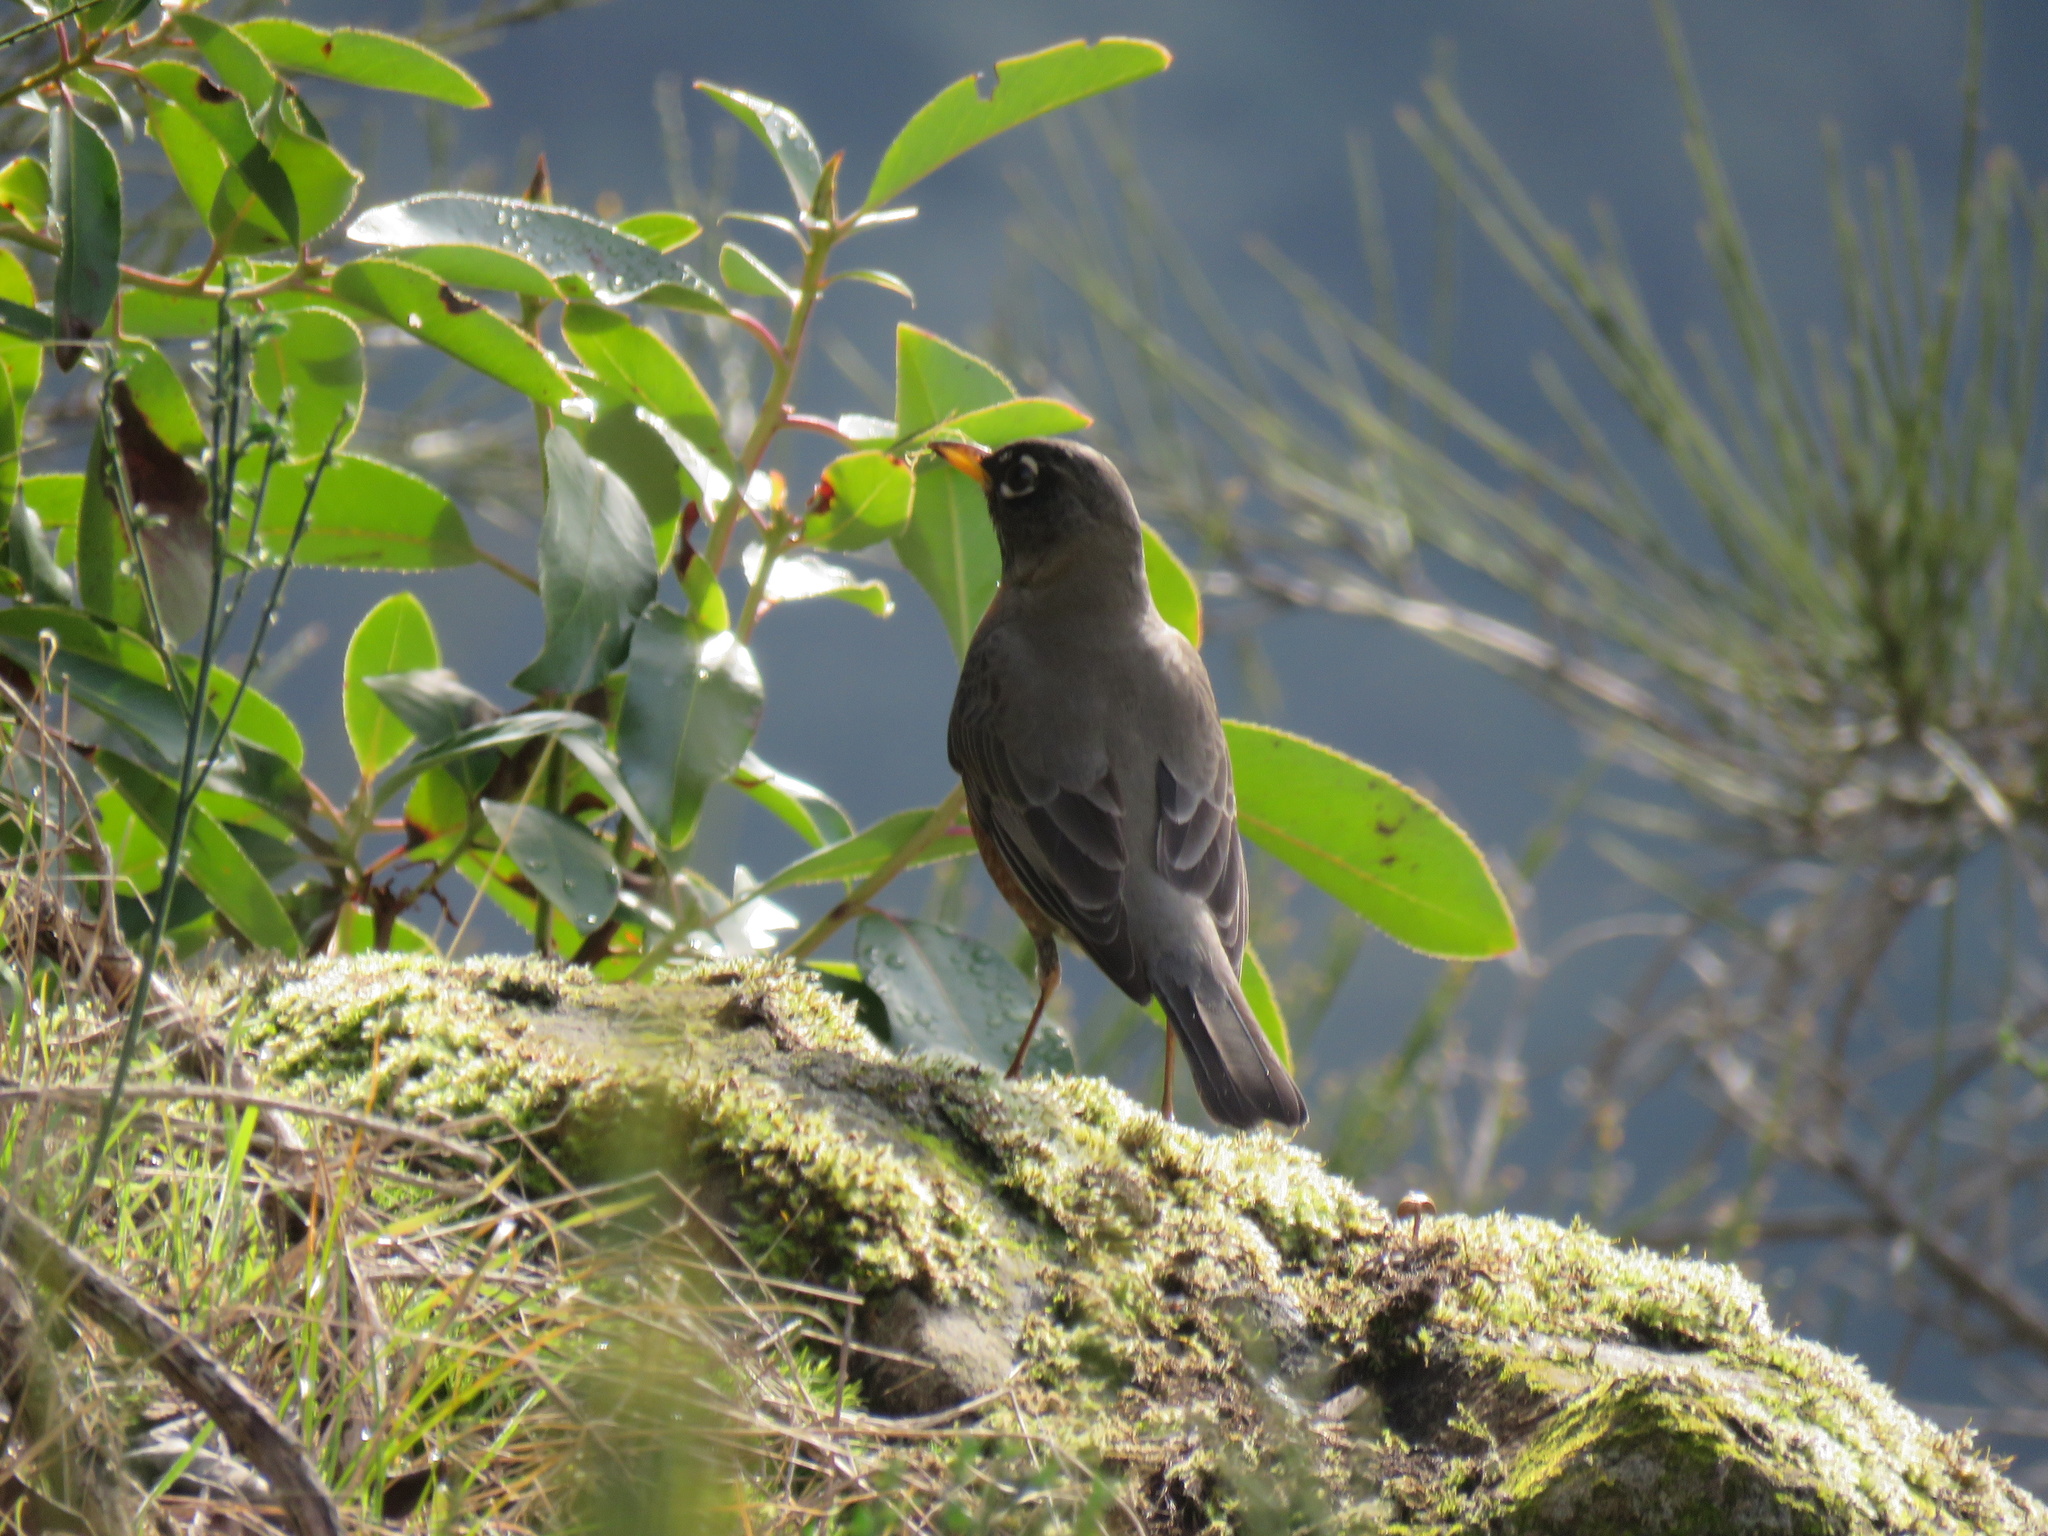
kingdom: Animalia
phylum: Chordata
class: Aves
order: Passeriformes
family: Turdidae
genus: Turdus
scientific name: Turdus migratorius
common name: American robin
